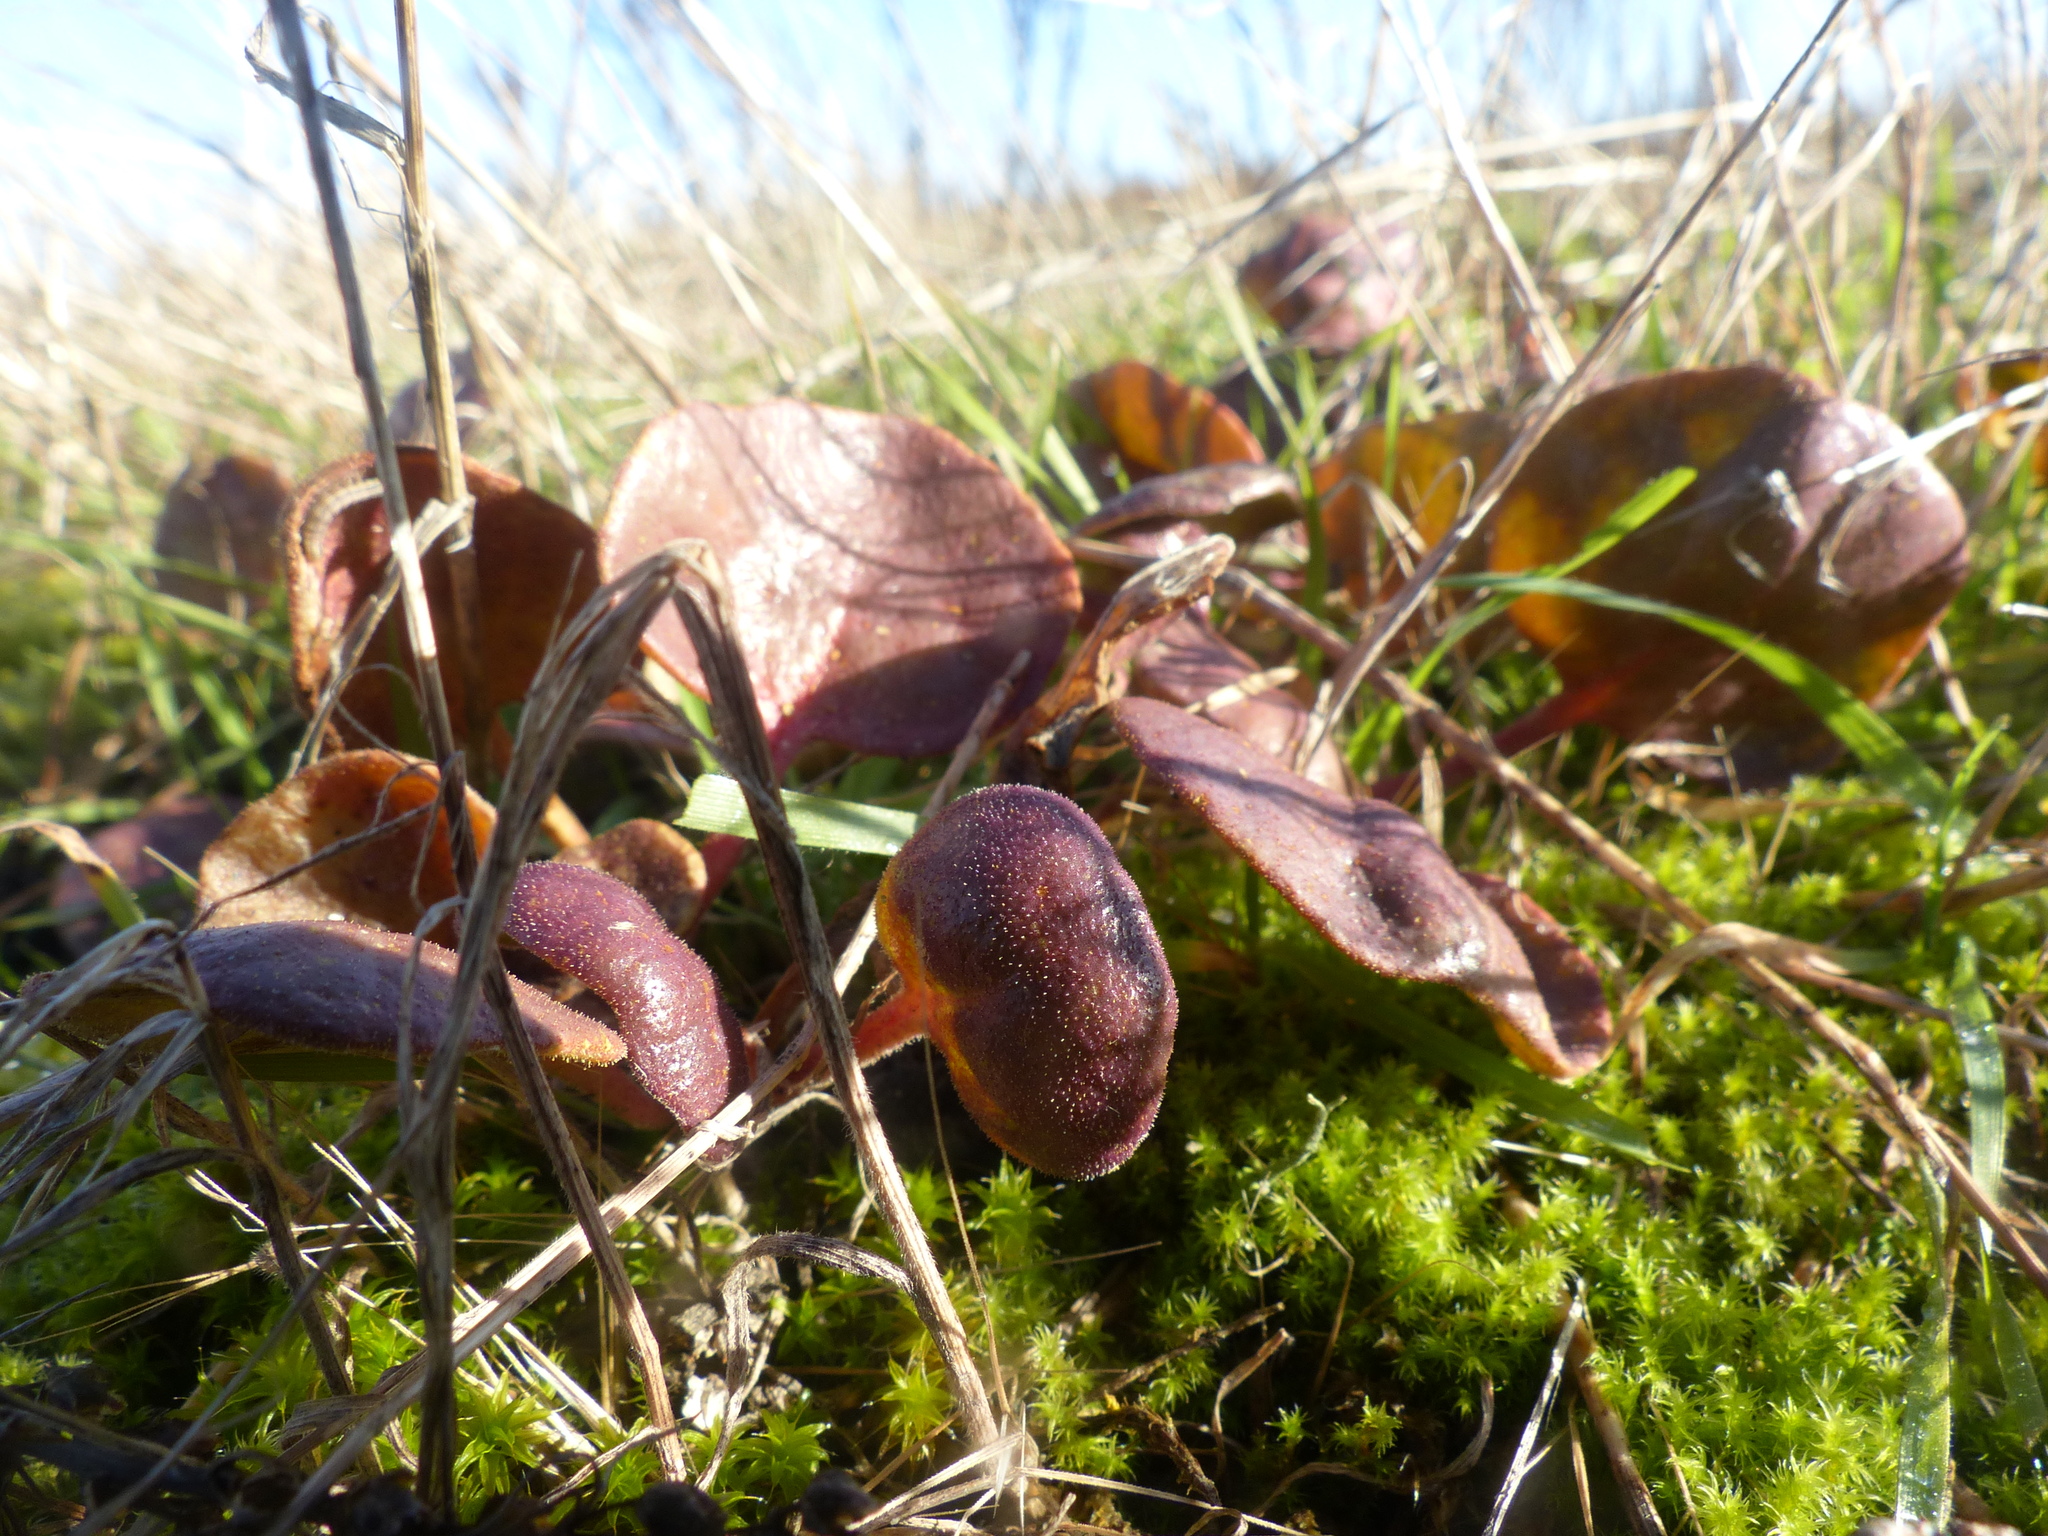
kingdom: Plantae
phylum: Tracheophyta
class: Magnoliopsida
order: Caryophyllales
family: Nyctaginaceae
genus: Abronia
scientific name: Abronia latifolia
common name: Yellow sand-verbena
